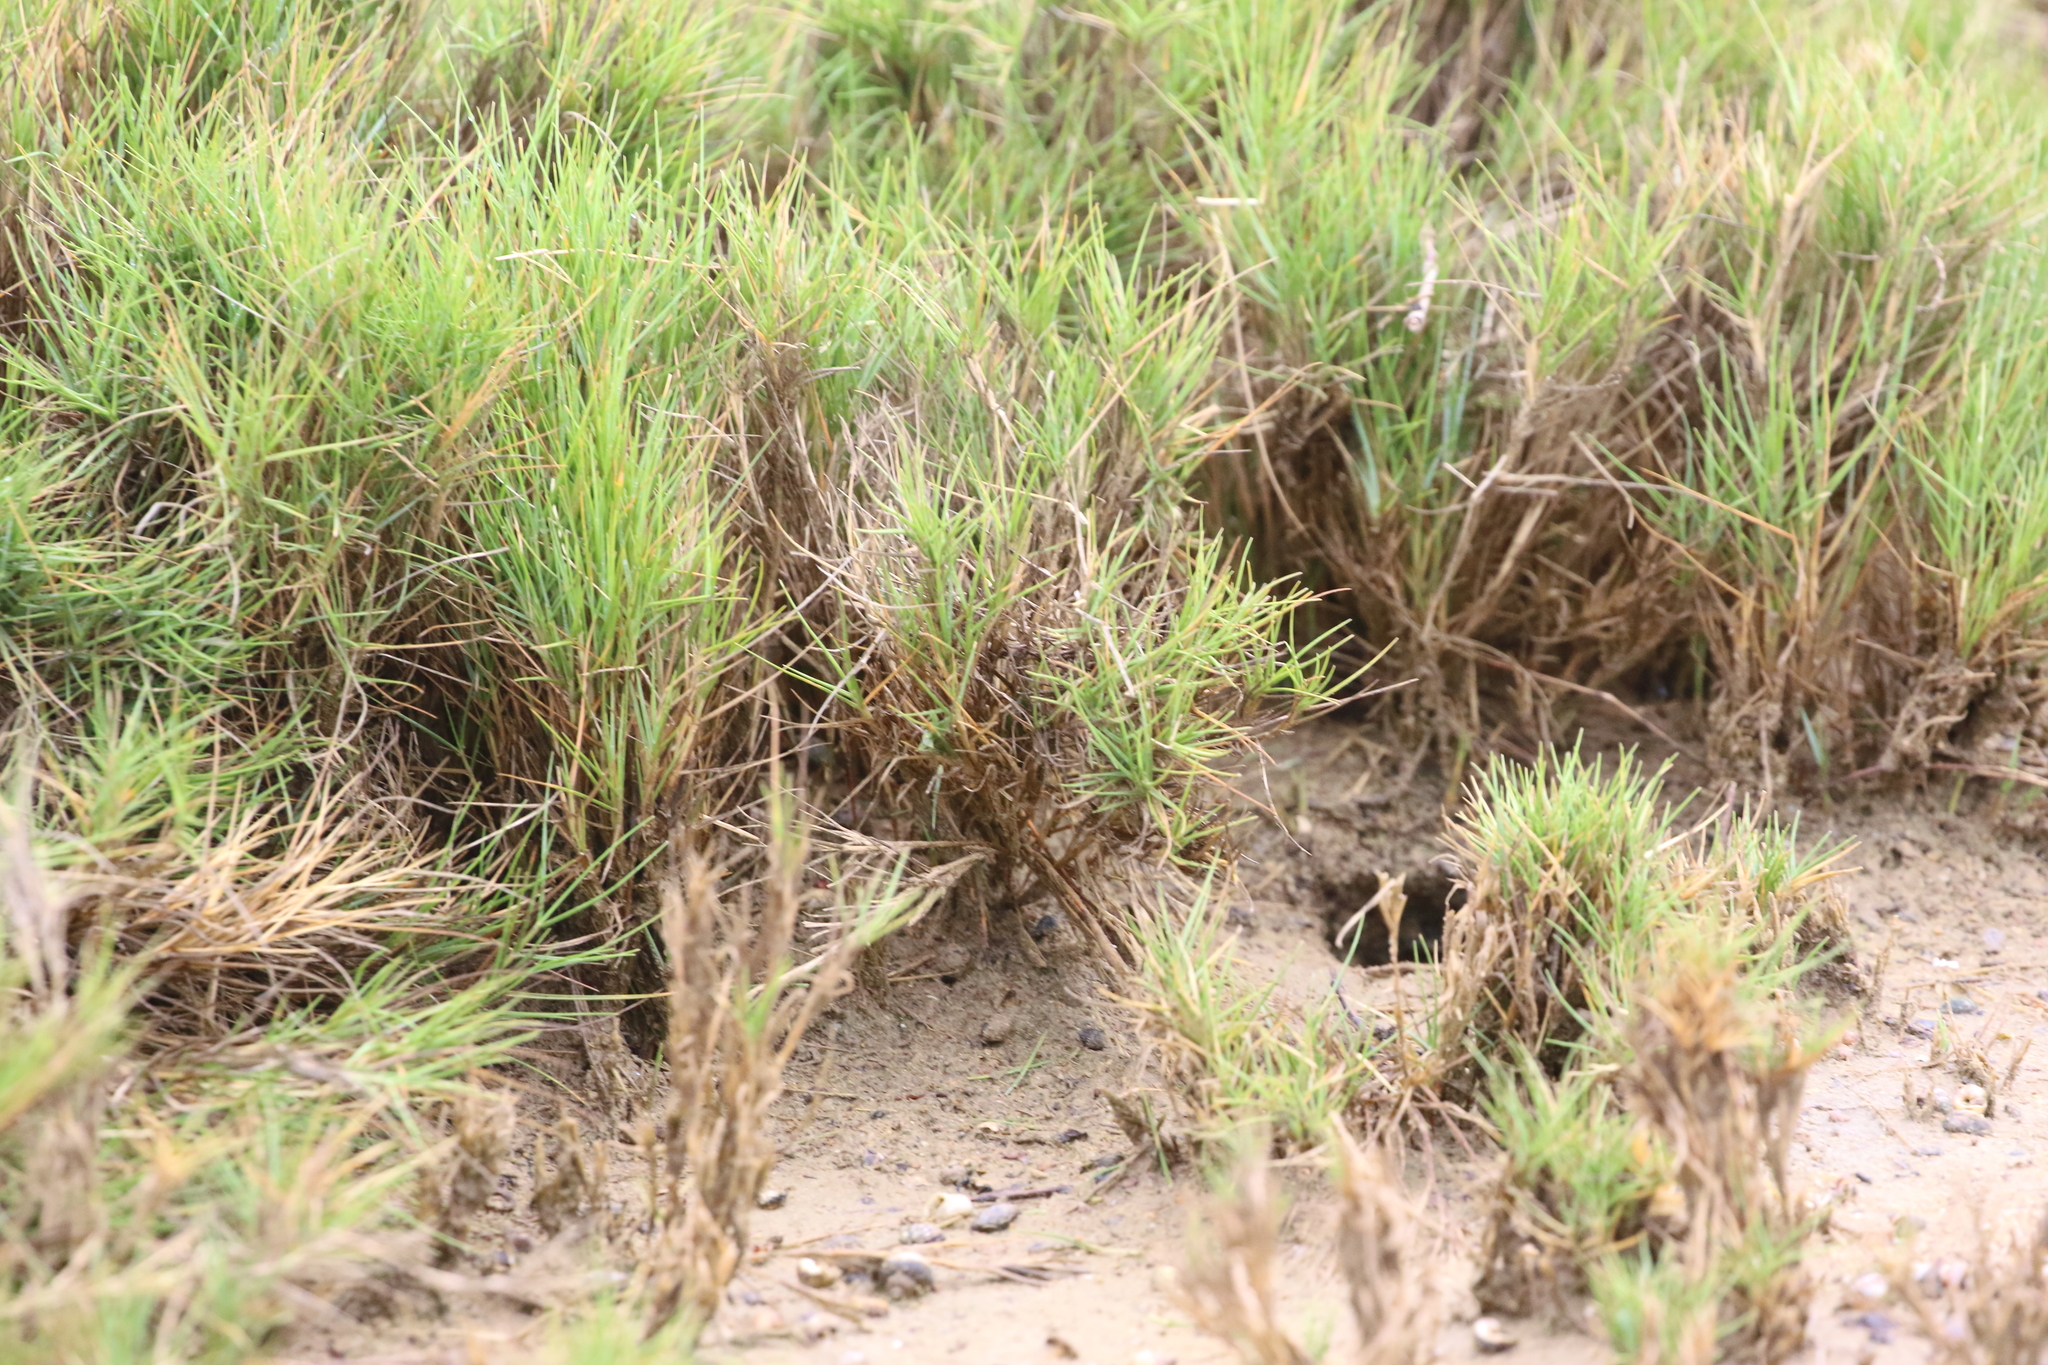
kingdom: Plantae
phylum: Tracheophyta
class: Liliopsida
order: Poales
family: Poaceae
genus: Sporobolus
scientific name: Sporobolus virginicus
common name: Beach dropseed
